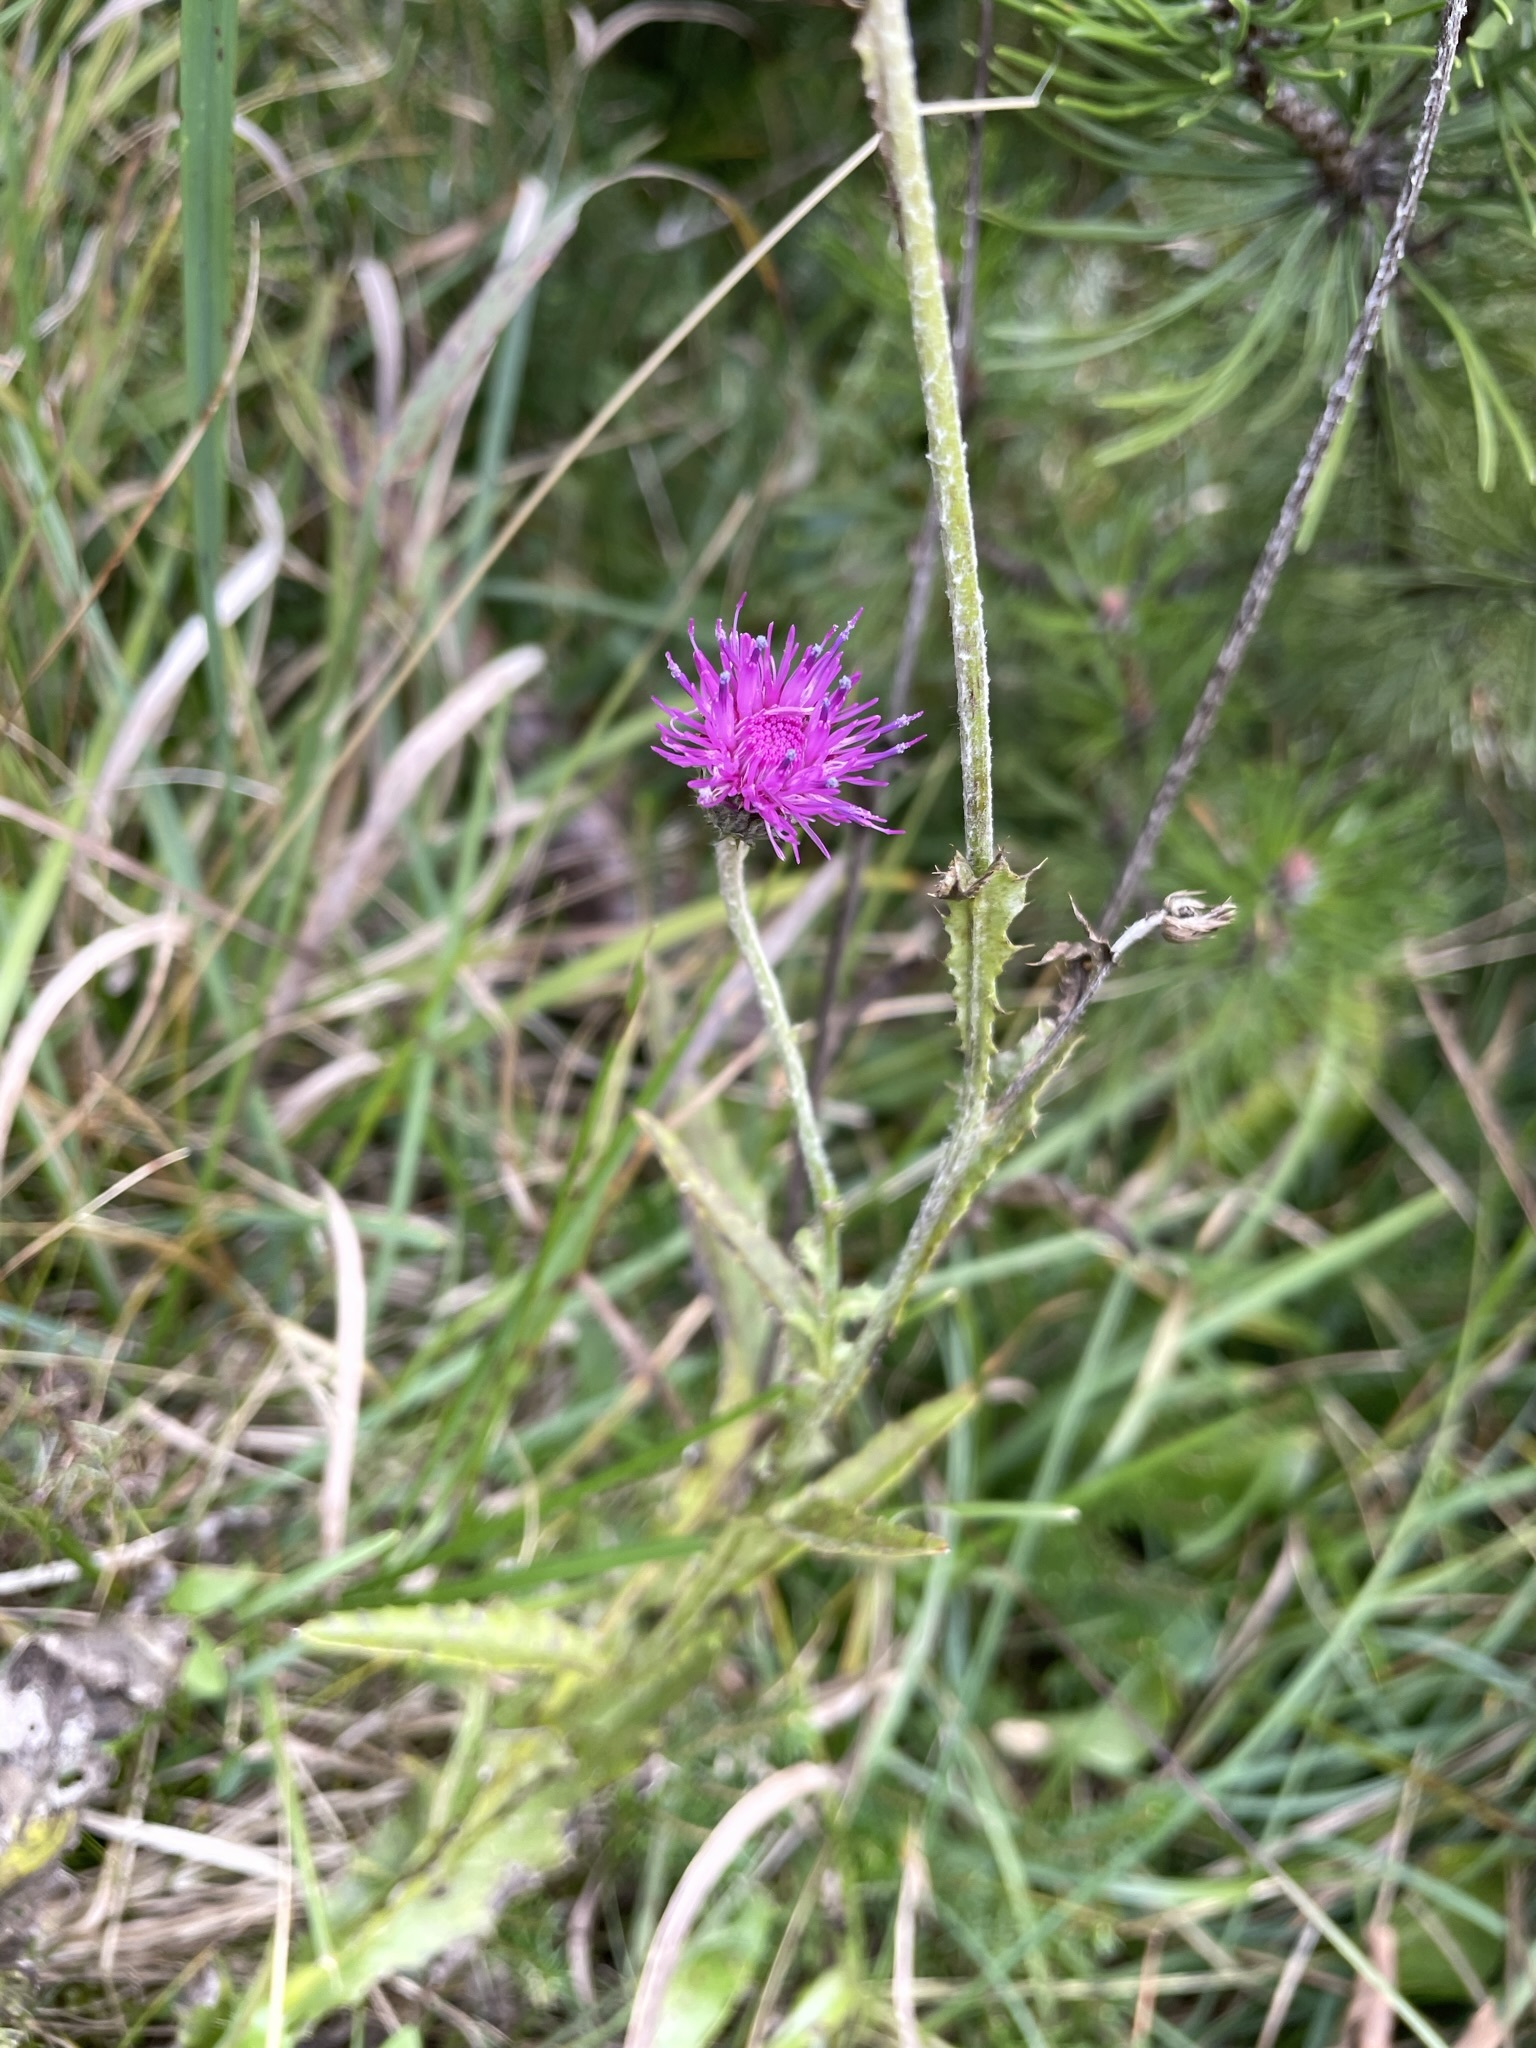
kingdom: Plantae
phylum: Tracheophyta
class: Magnoliopsida
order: Asterales
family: Asteraceae
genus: Carduus
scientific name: Carduus defloratus
